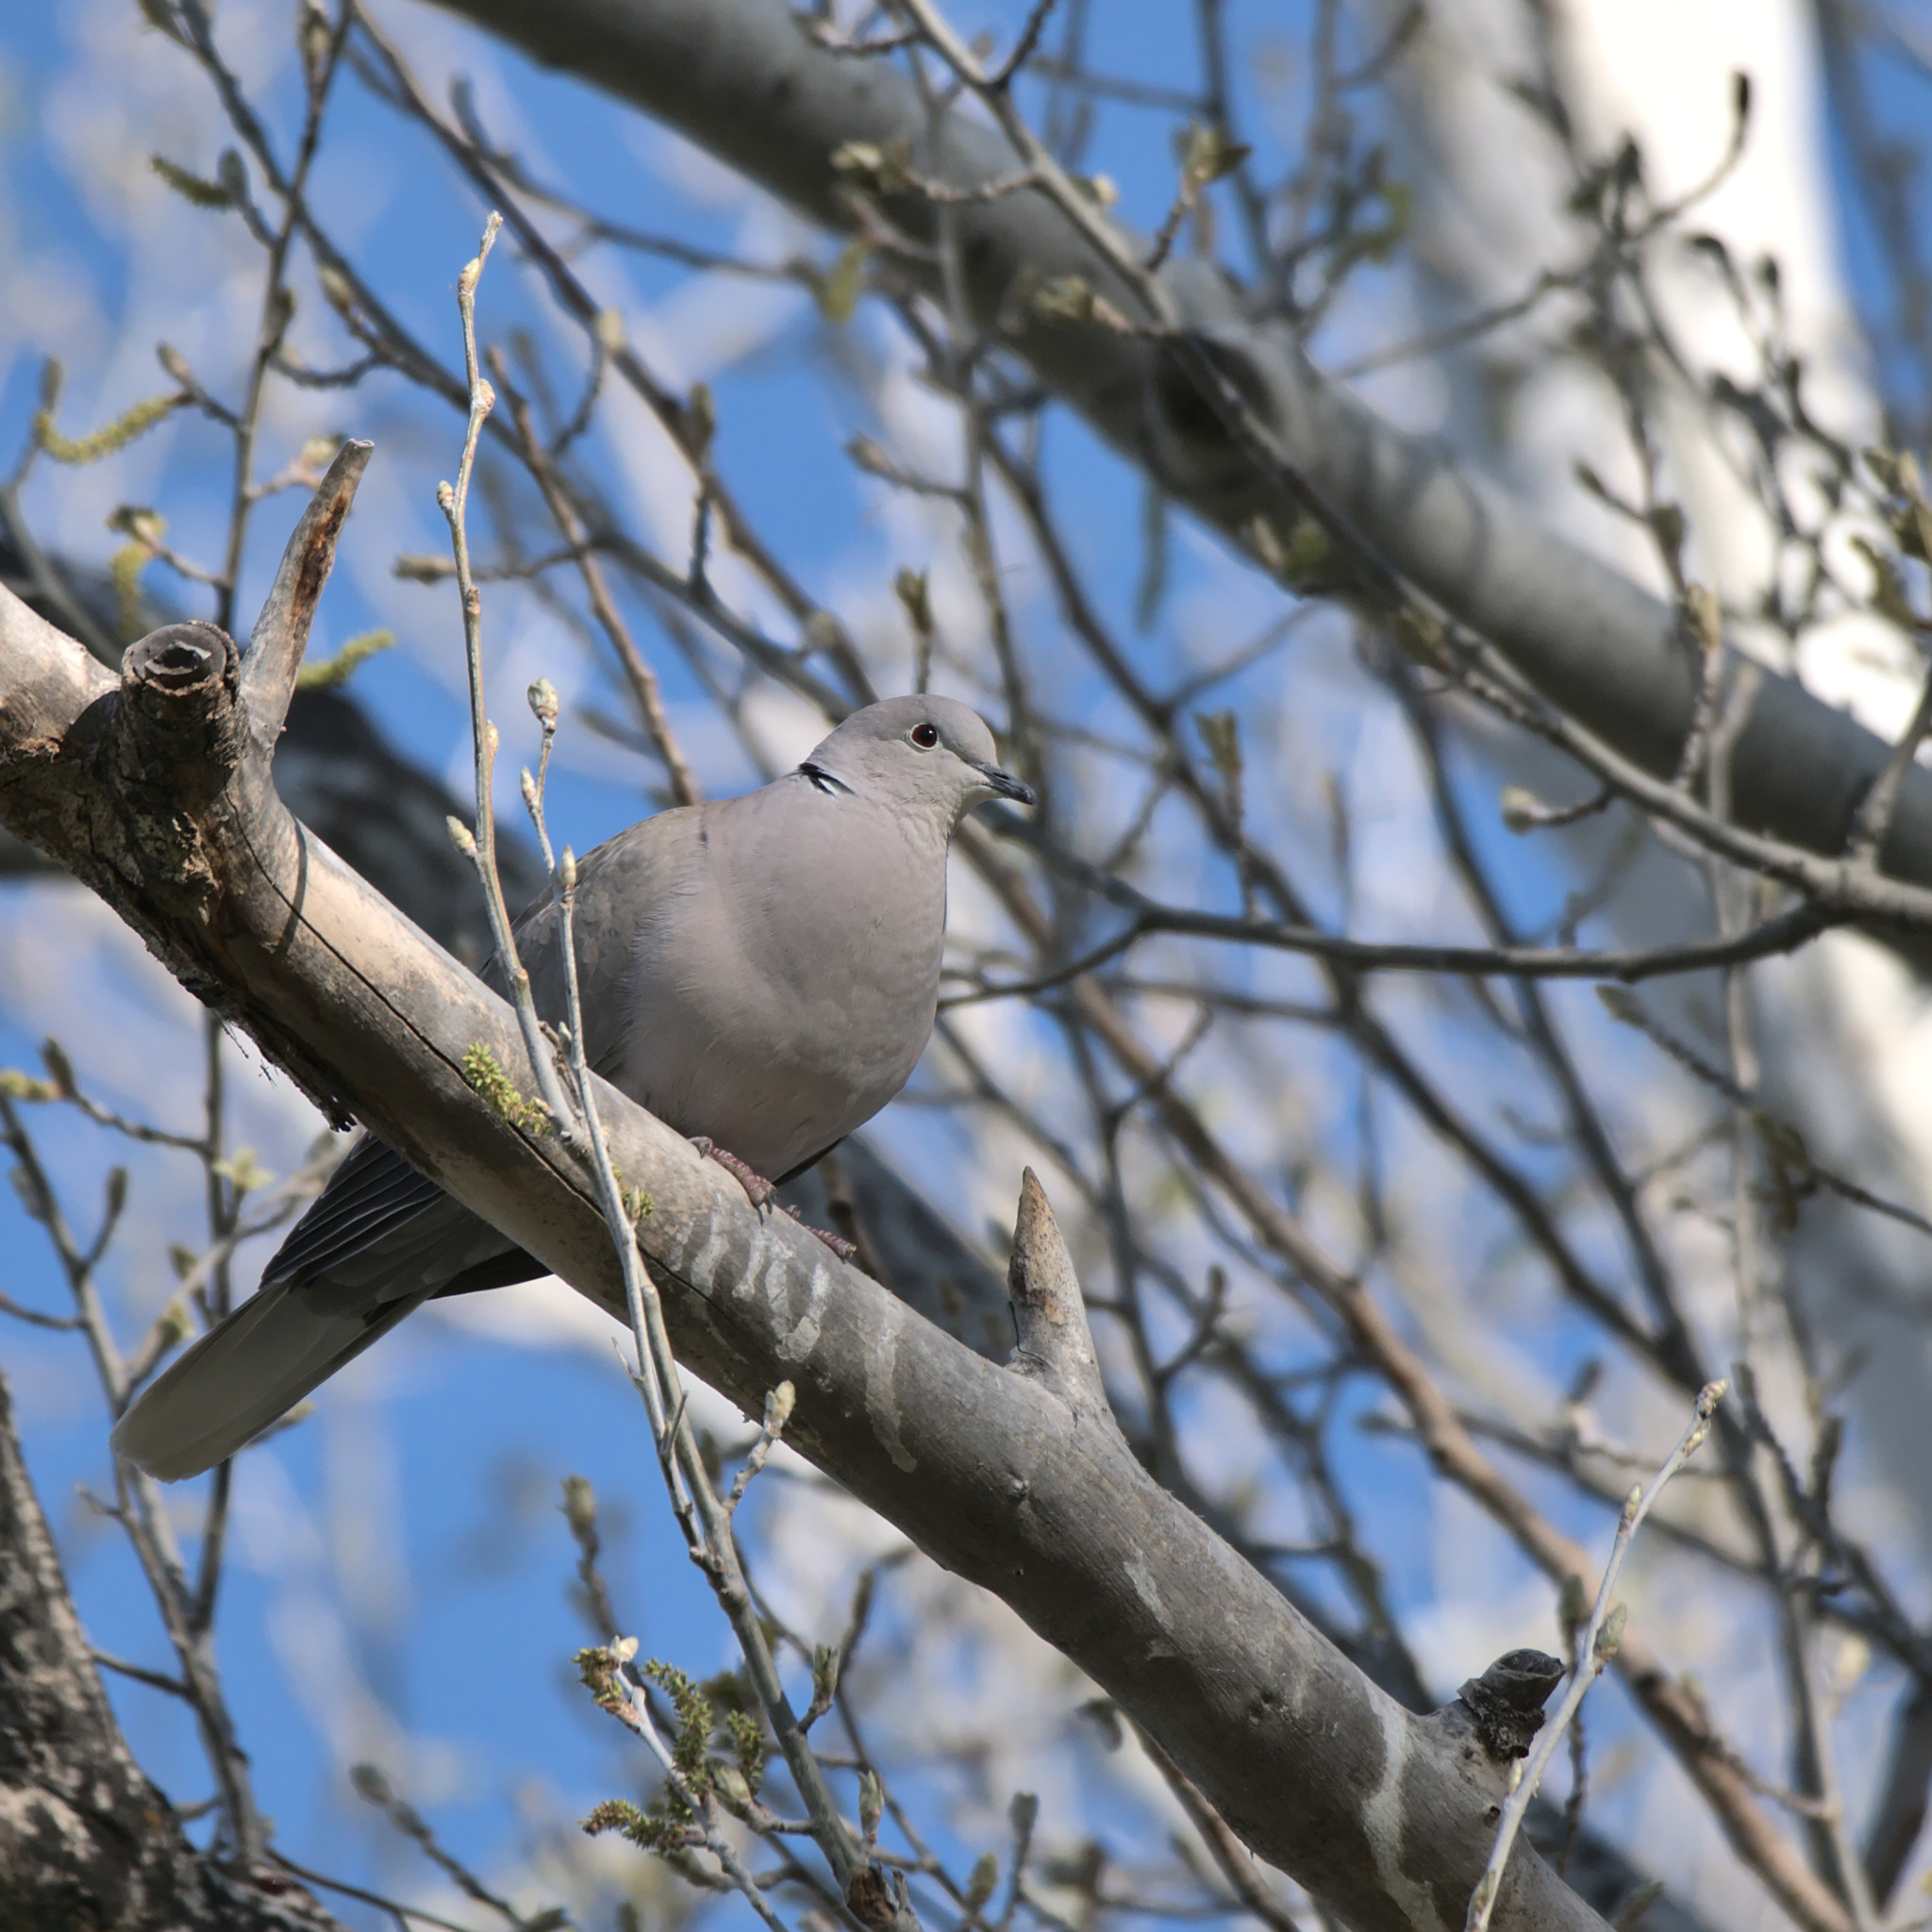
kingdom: Animalia
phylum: Chordata
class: Aves
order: Columbiformes
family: Columbidae
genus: Streptopelia
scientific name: Streptopelia decaocto
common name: Eurasian collared dove
